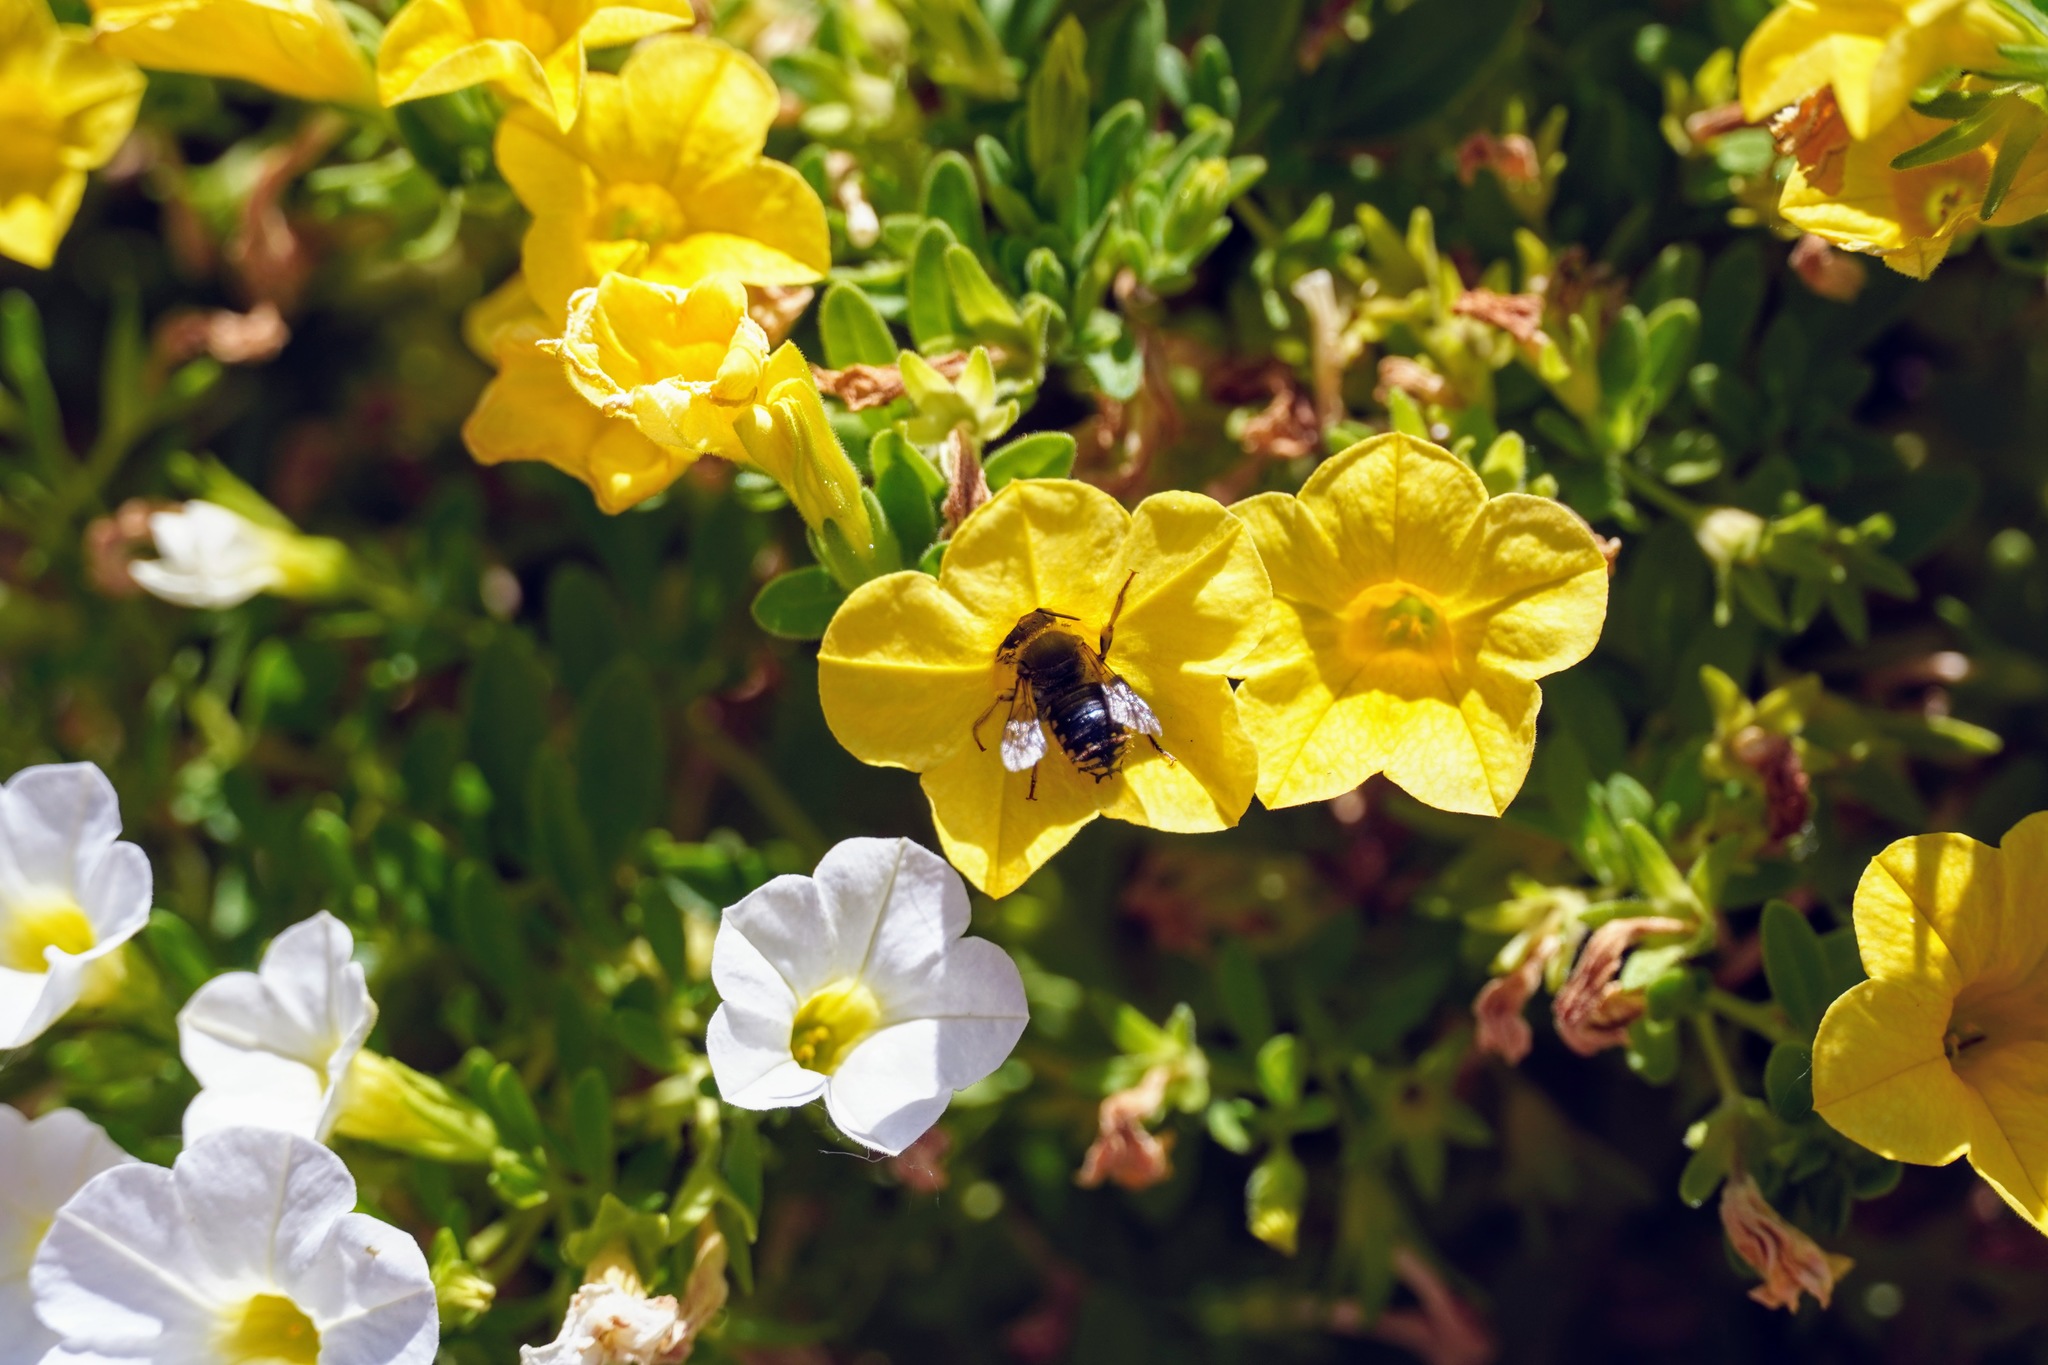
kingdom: Animalia
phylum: Arthropoda
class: Insecta
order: Hymenoptera
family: Megachilidae
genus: Anthidium
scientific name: Anthidium manicatum
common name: Wool carder bee
